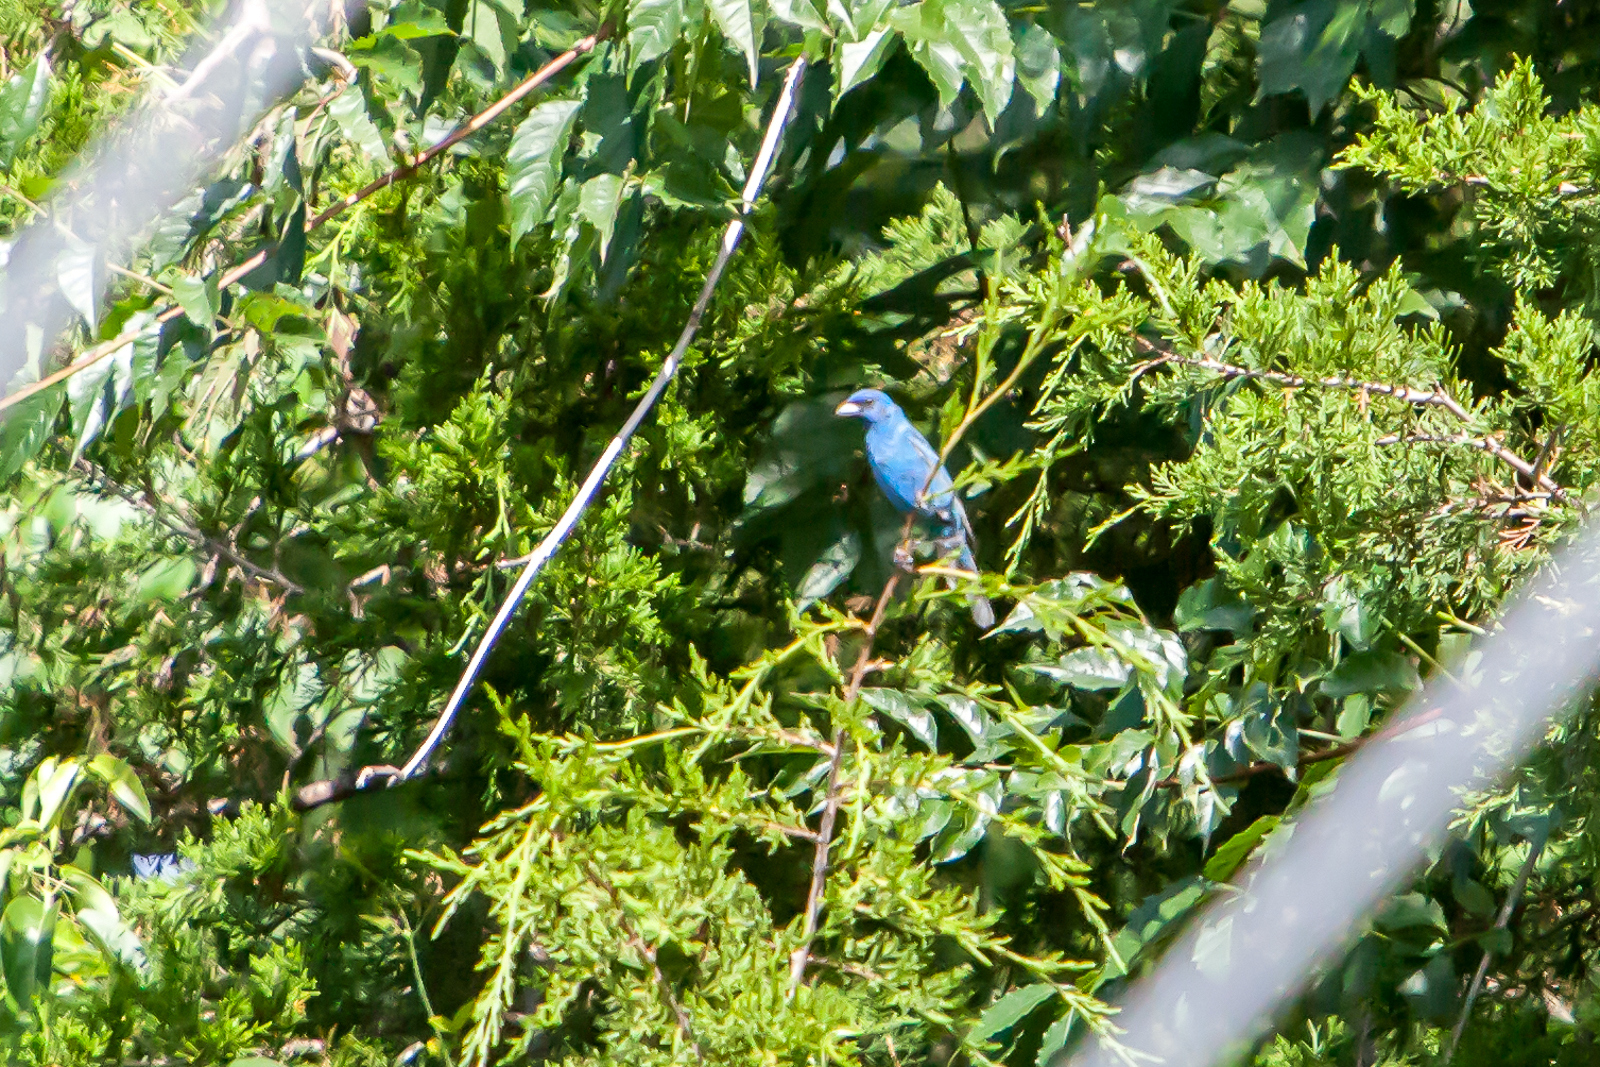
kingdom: Animalia
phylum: Chordata
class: Aves
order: Passeriformes
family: Cardinalidae
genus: Passerina
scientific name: Passerina cyanea
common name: Indigo bunting
